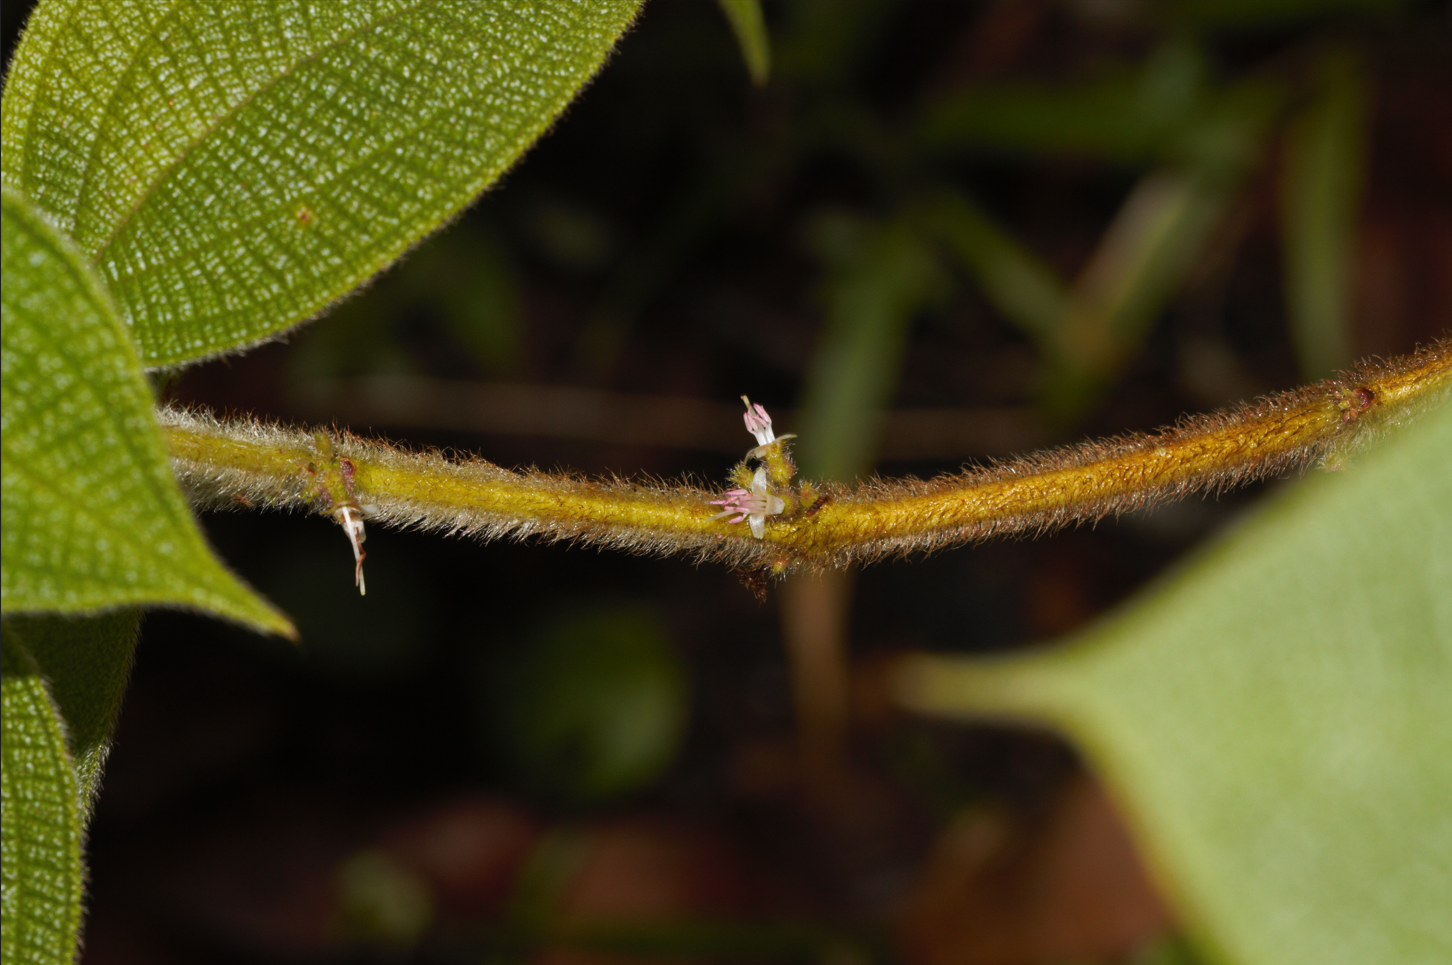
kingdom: Plantae
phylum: Tracheophyta
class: Magnoliopsida
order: Myrtales
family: Melastomataceae
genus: Miconia
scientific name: Miconia rubra
